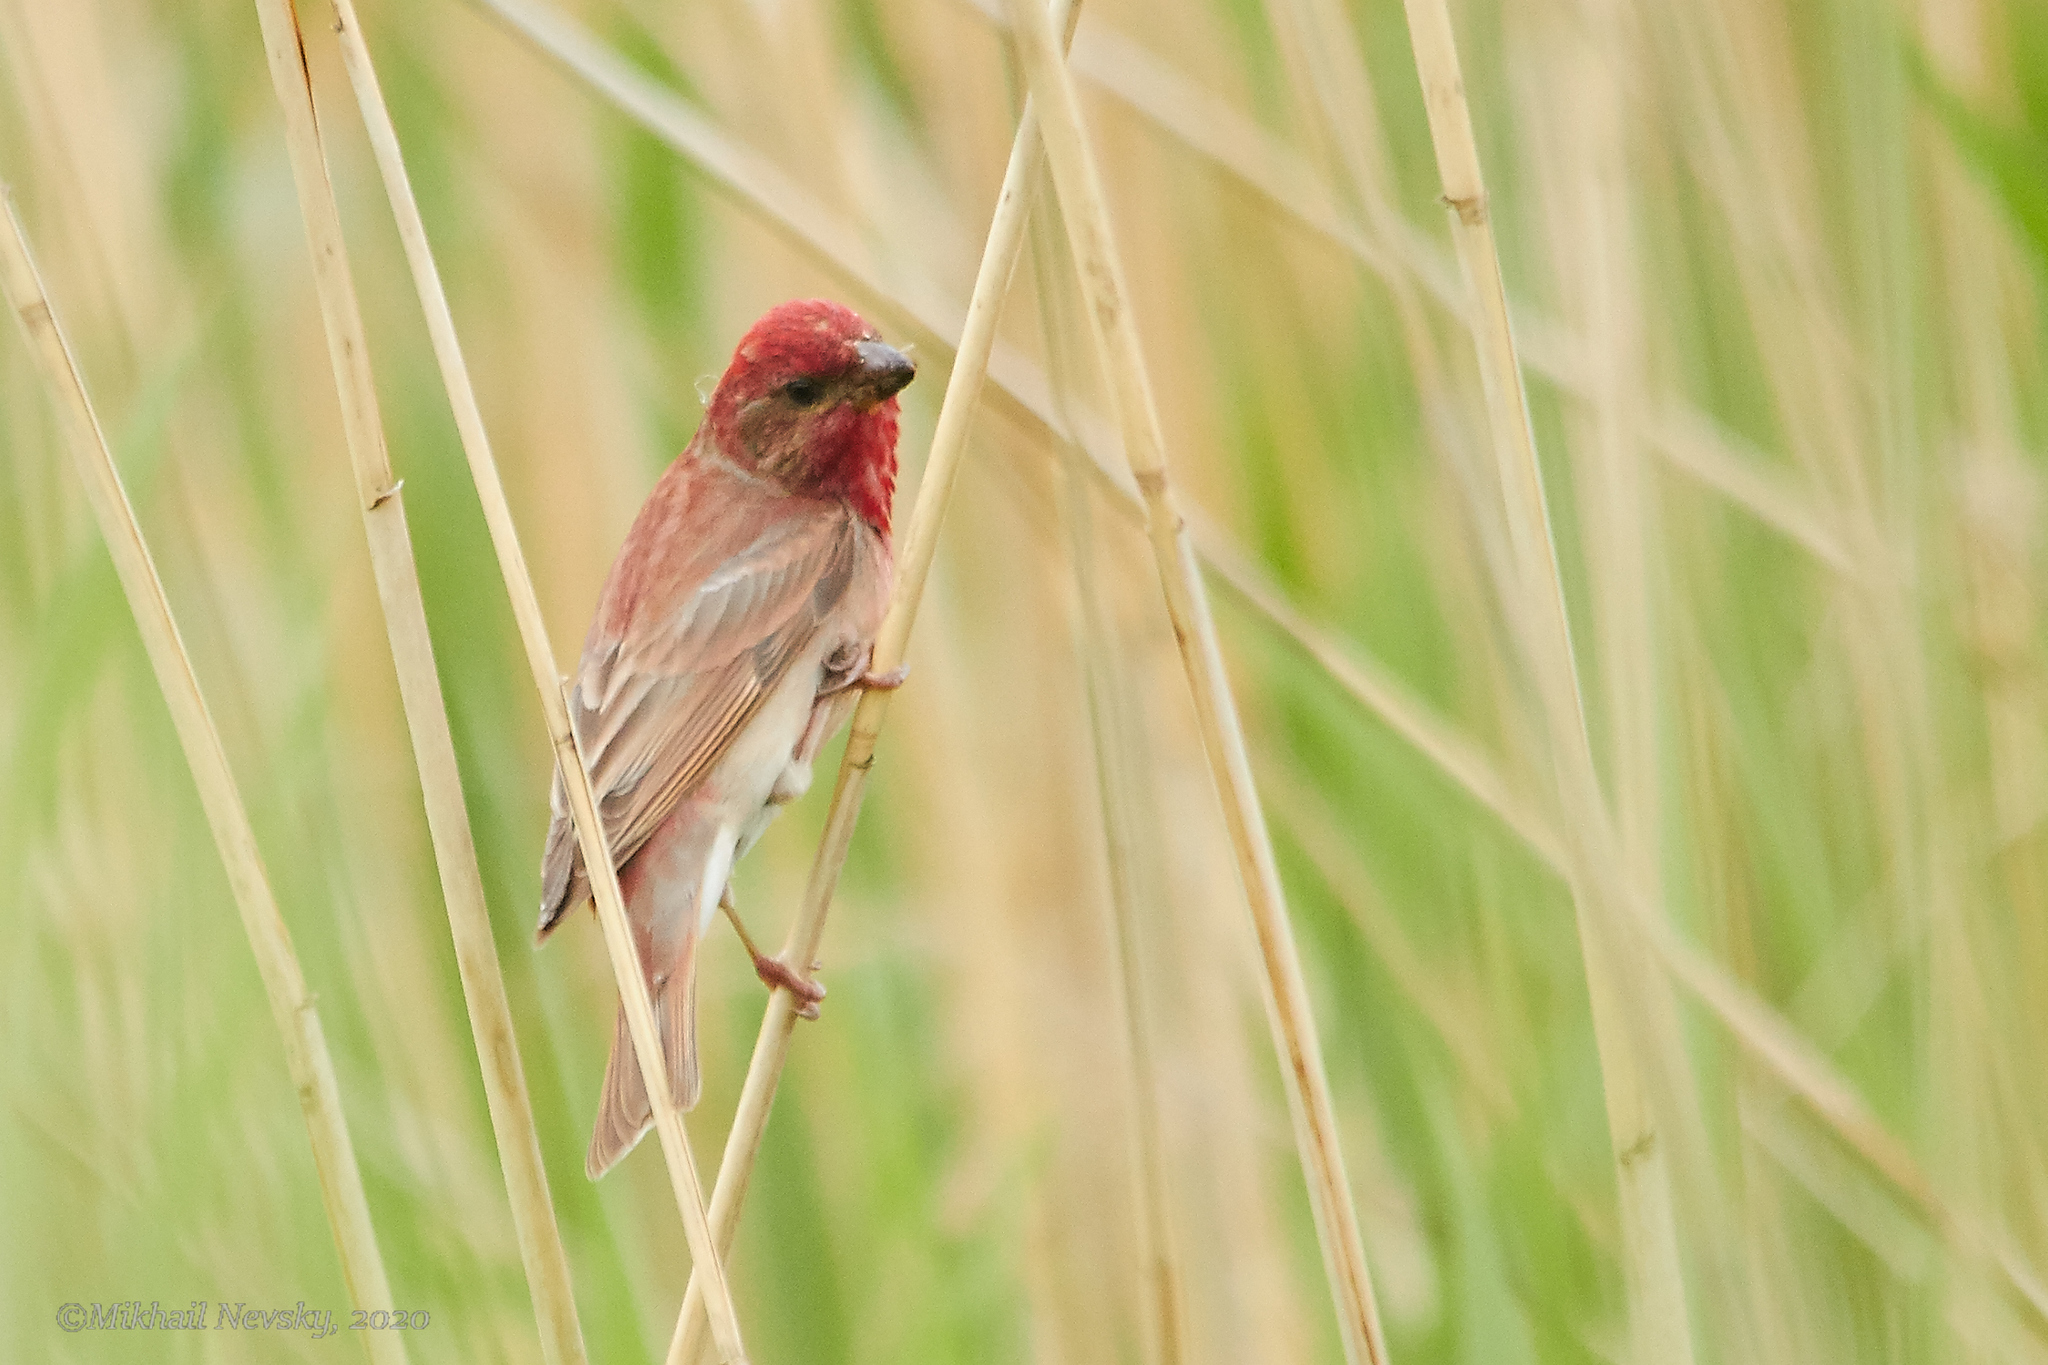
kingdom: Animalia
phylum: Chordata
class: Aves
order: Passeriformes
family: Fringillidae
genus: Carpodacus
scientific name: Carpodacus erythrinus
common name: Common rosefinch
